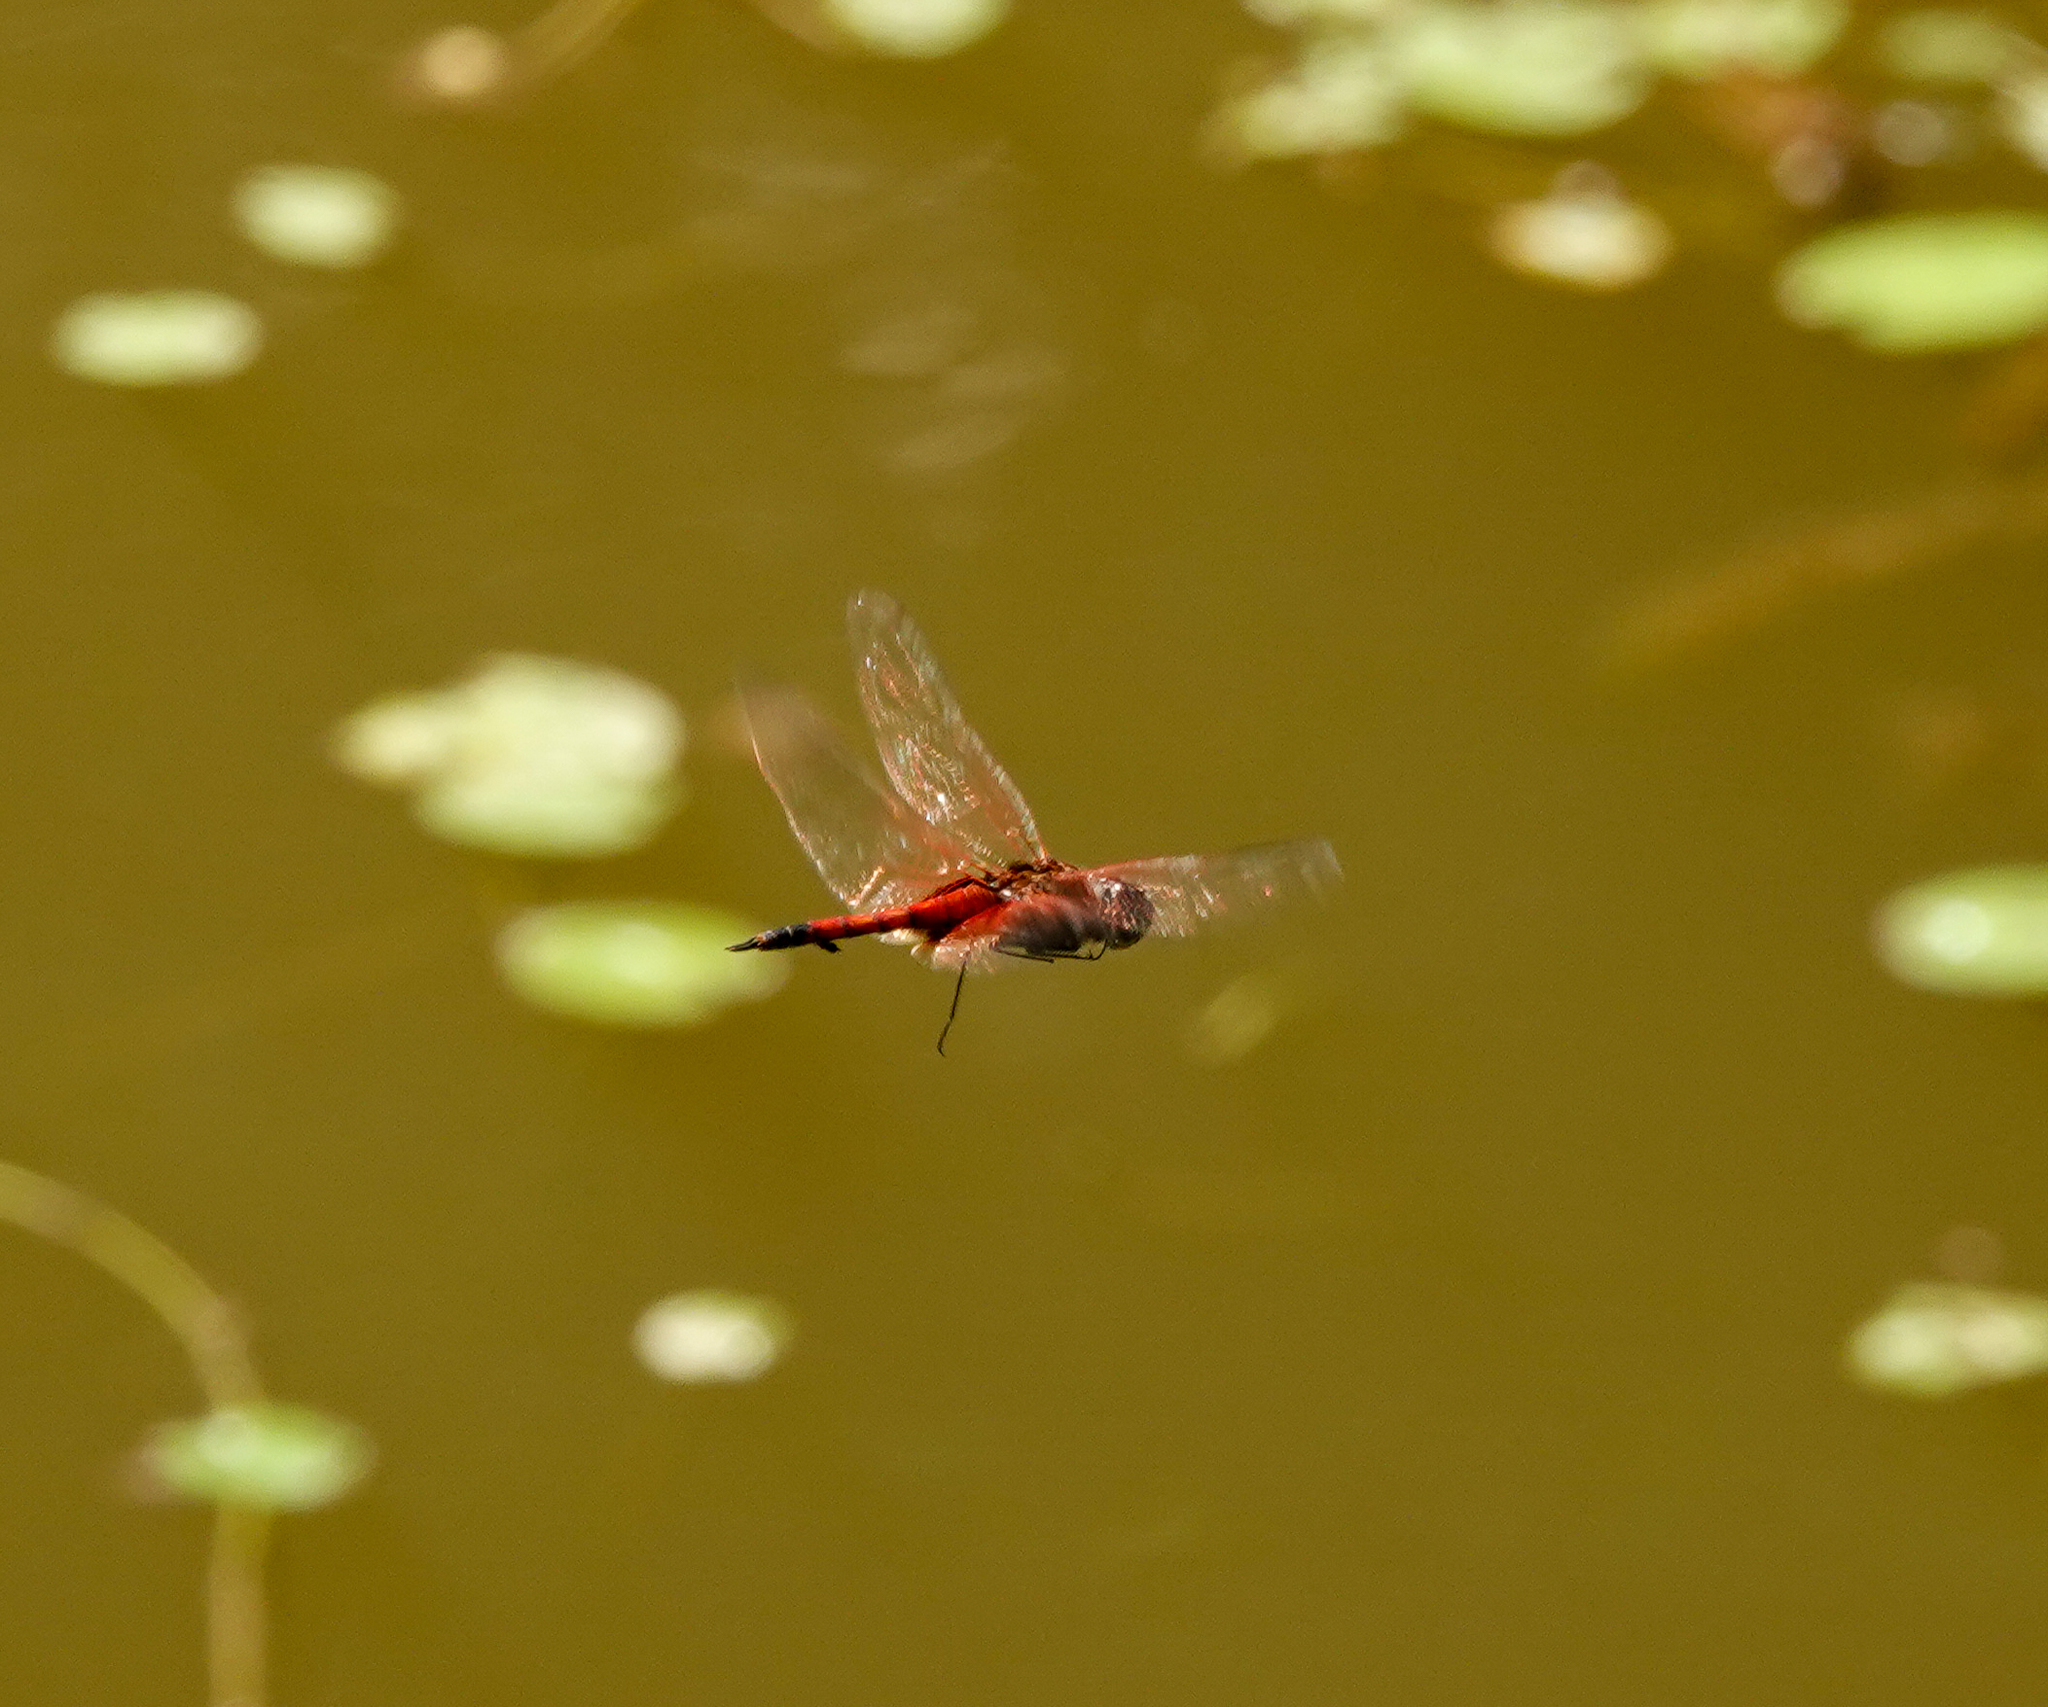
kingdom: Animalia
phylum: Arthropoda
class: Insecta
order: Odonata
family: Libellulidae
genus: Tramea
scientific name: Tramea limbata
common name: Ferruginous glider
